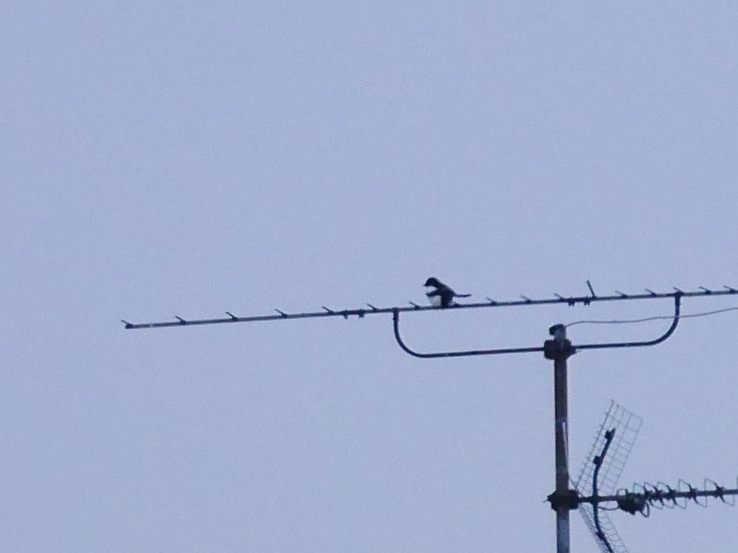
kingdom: Animalia
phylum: Chordata
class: Aves
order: Passeriformes
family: Corvidae
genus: Pica
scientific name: Pica pica
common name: Eurasian magpie
